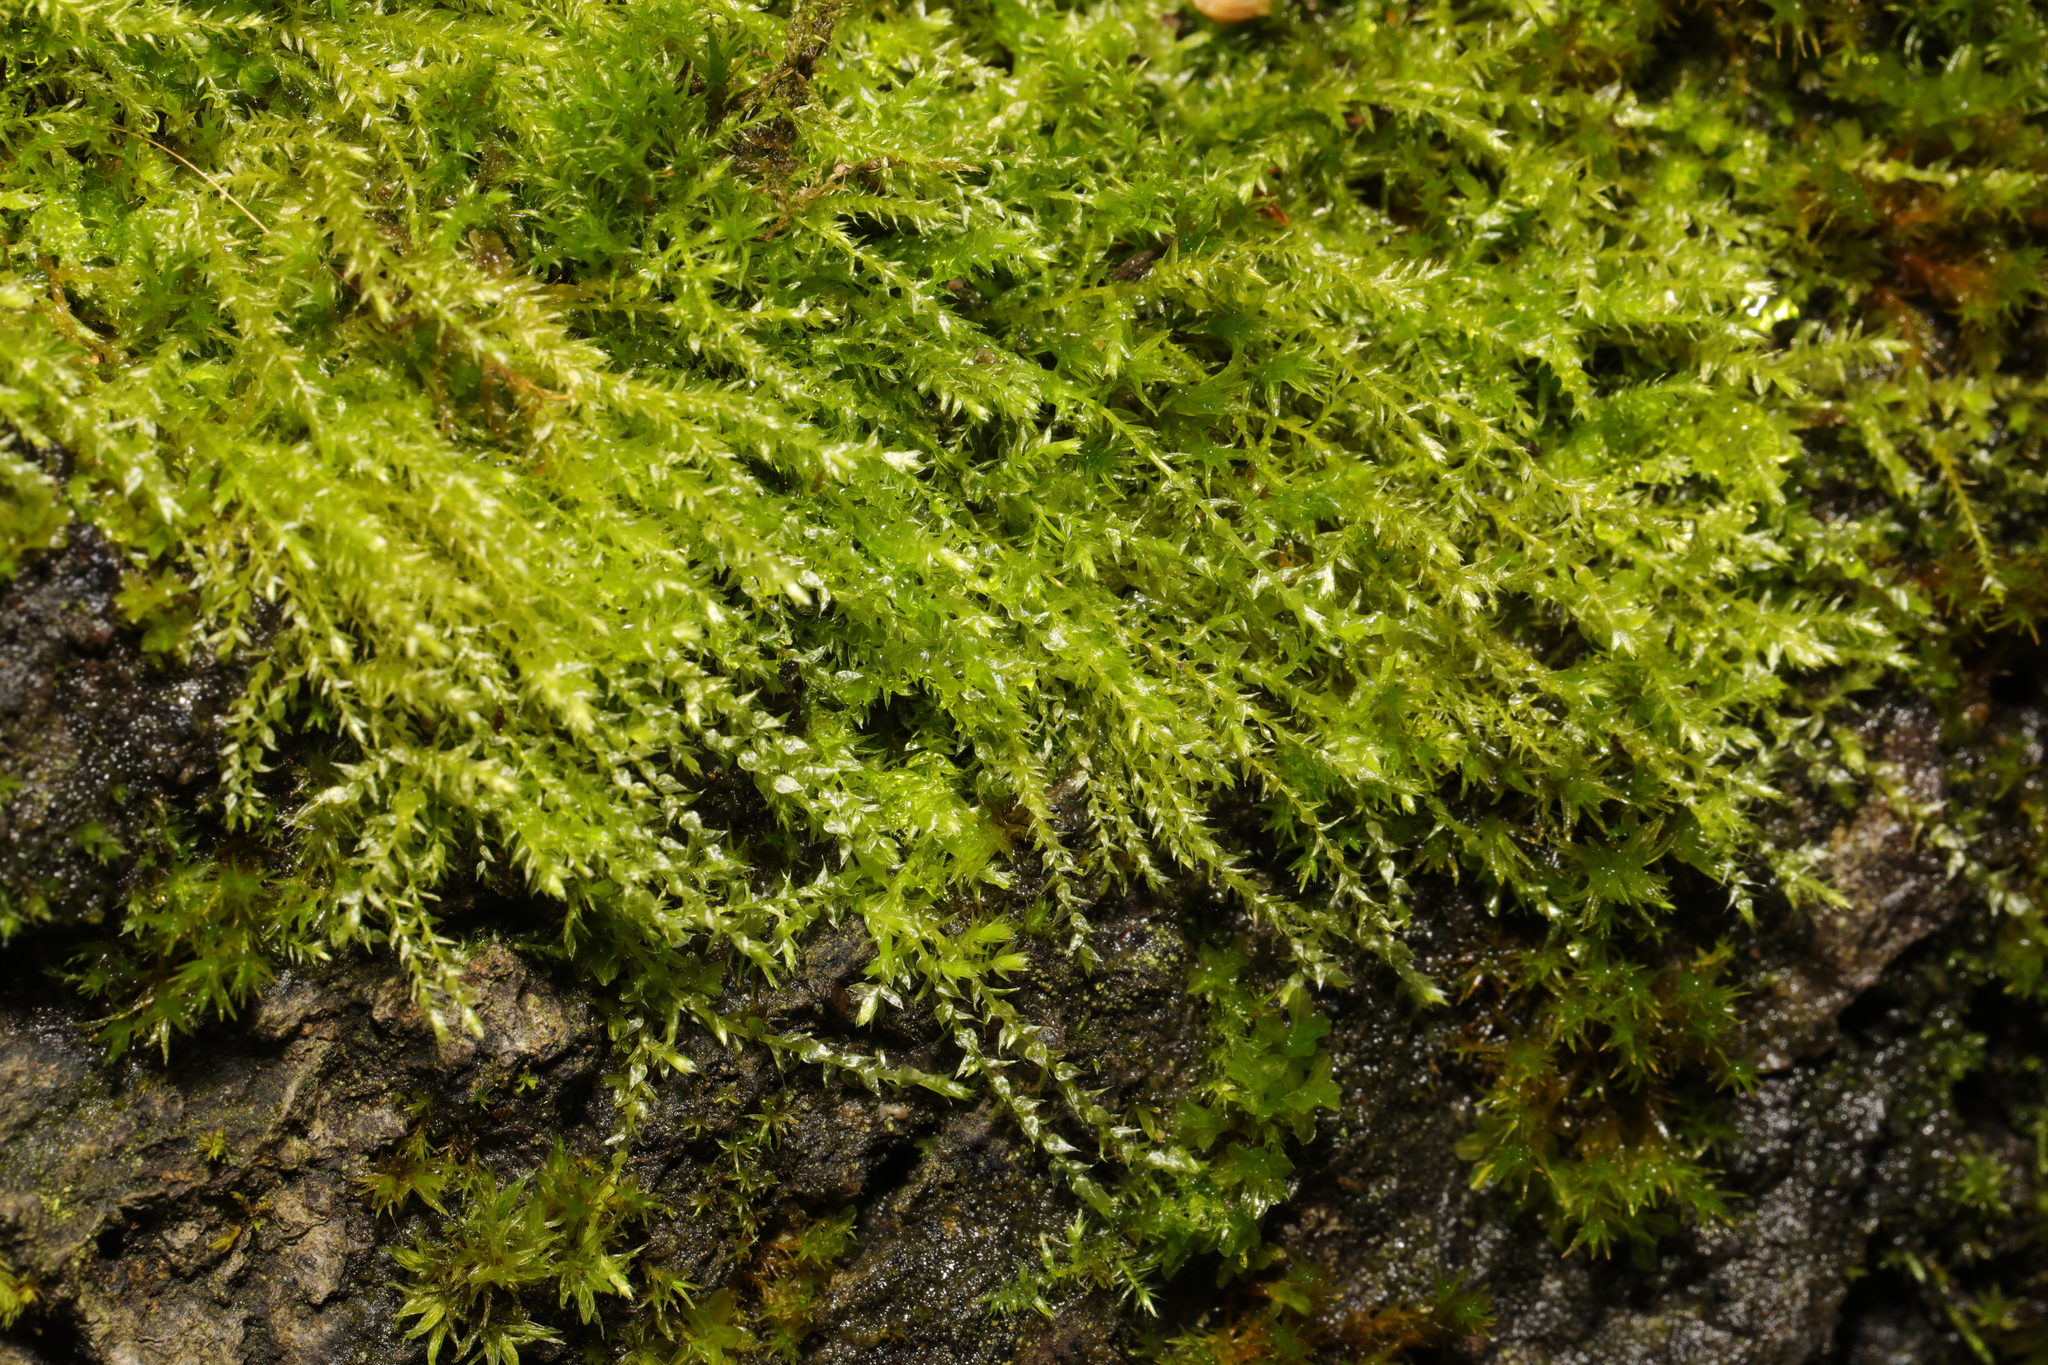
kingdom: Plantae
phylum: Bryophyta
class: Bryopsida
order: Hypnales
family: Amblystegiaceae
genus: Amblystegium
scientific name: Amblystegium serpens
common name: Jurkatzka's feather moss
